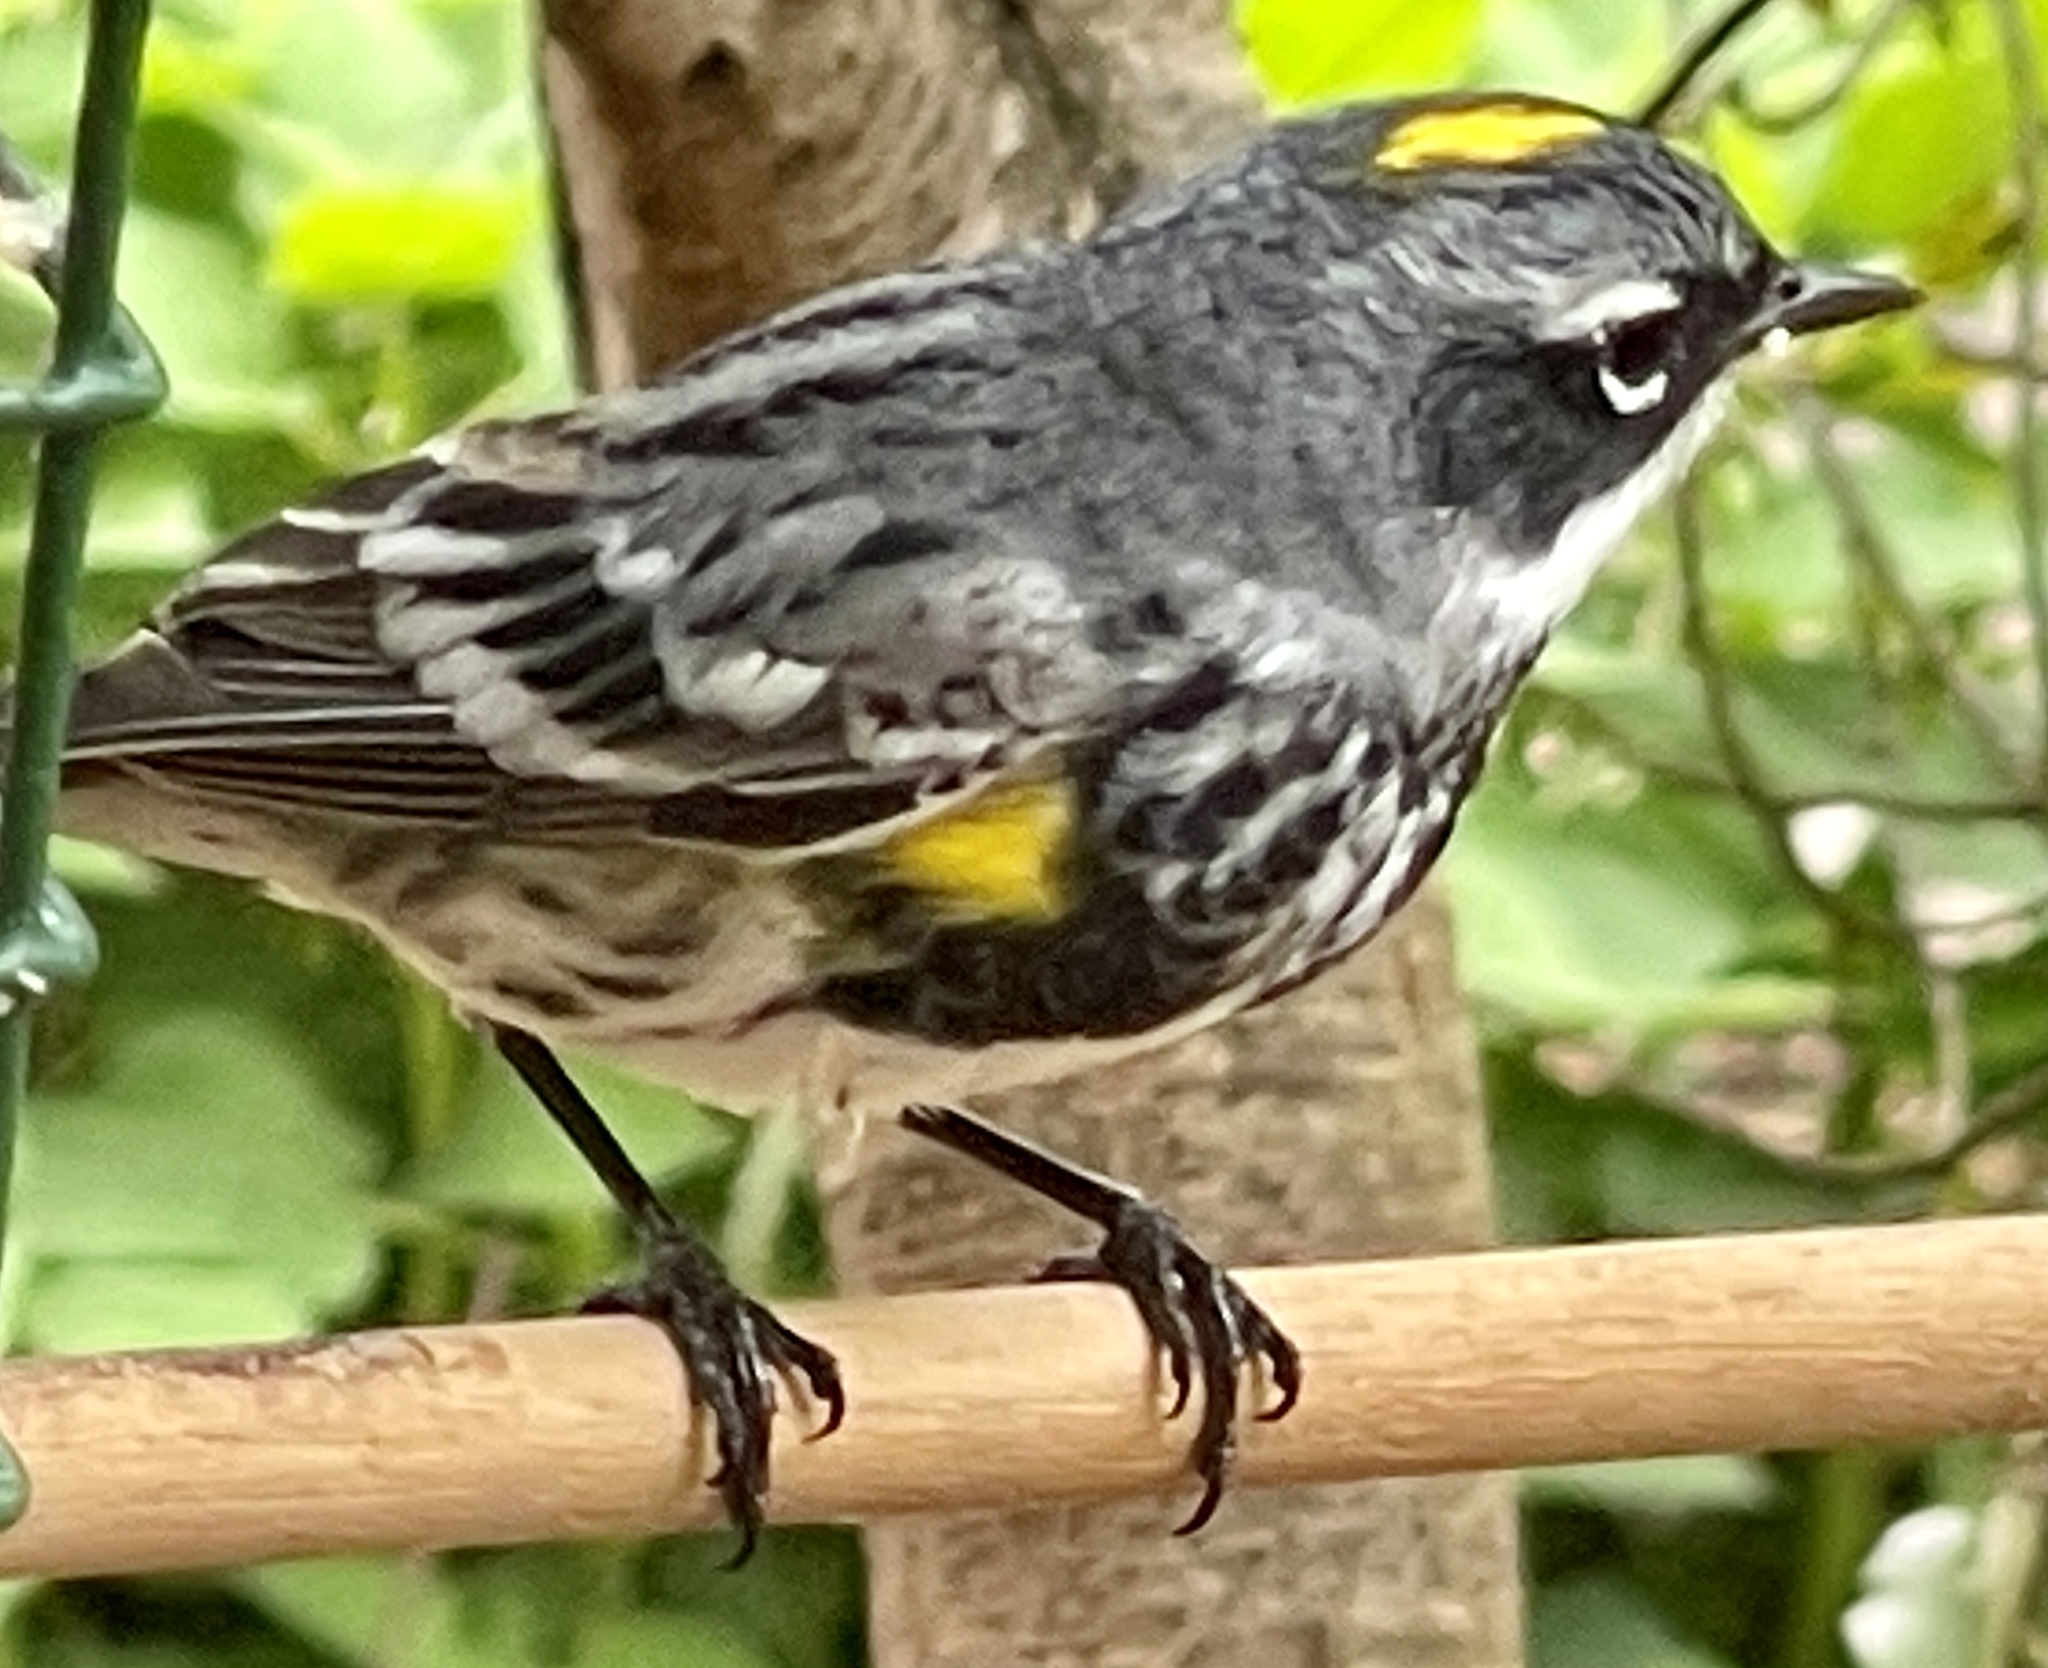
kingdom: Animalia
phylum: Chordata
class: Aves
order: Passeriformes
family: Parulidae
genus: Setophaga
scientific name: Setophaga coronata
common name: Myrtle warbler
